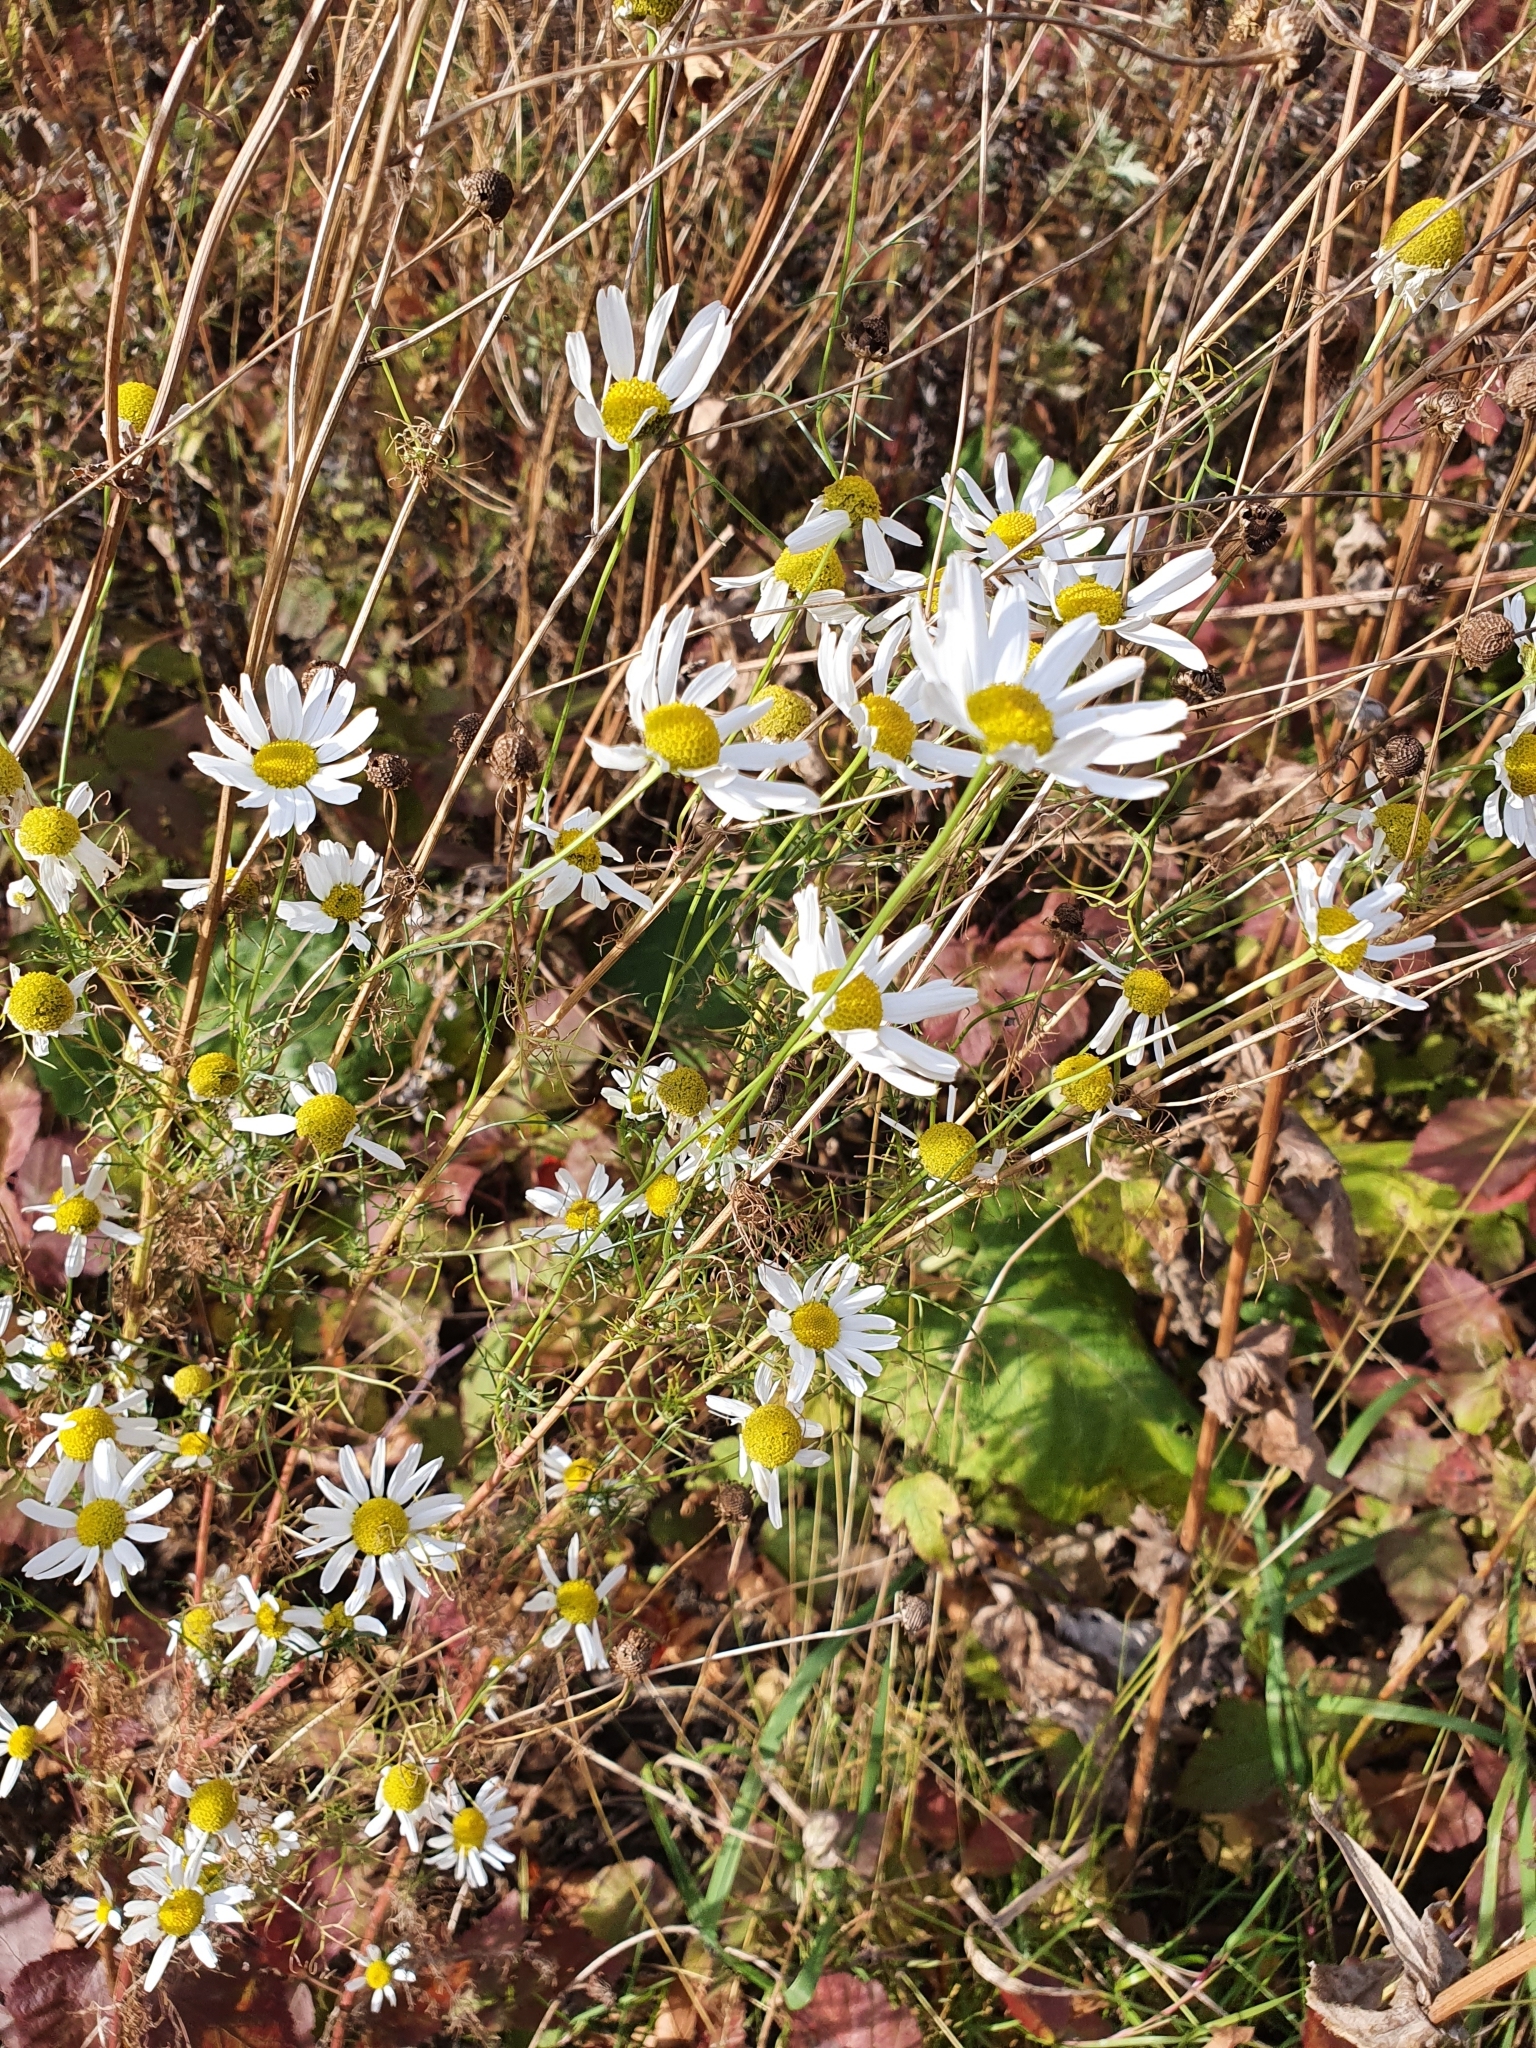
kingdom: Plantae
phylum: Tracheophyta
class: Magnoliopsida
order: Asterales
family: Asteraceae
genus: Tripleurospermum
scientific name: Tripleurospermum inodorum
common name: Scentless mayweed
